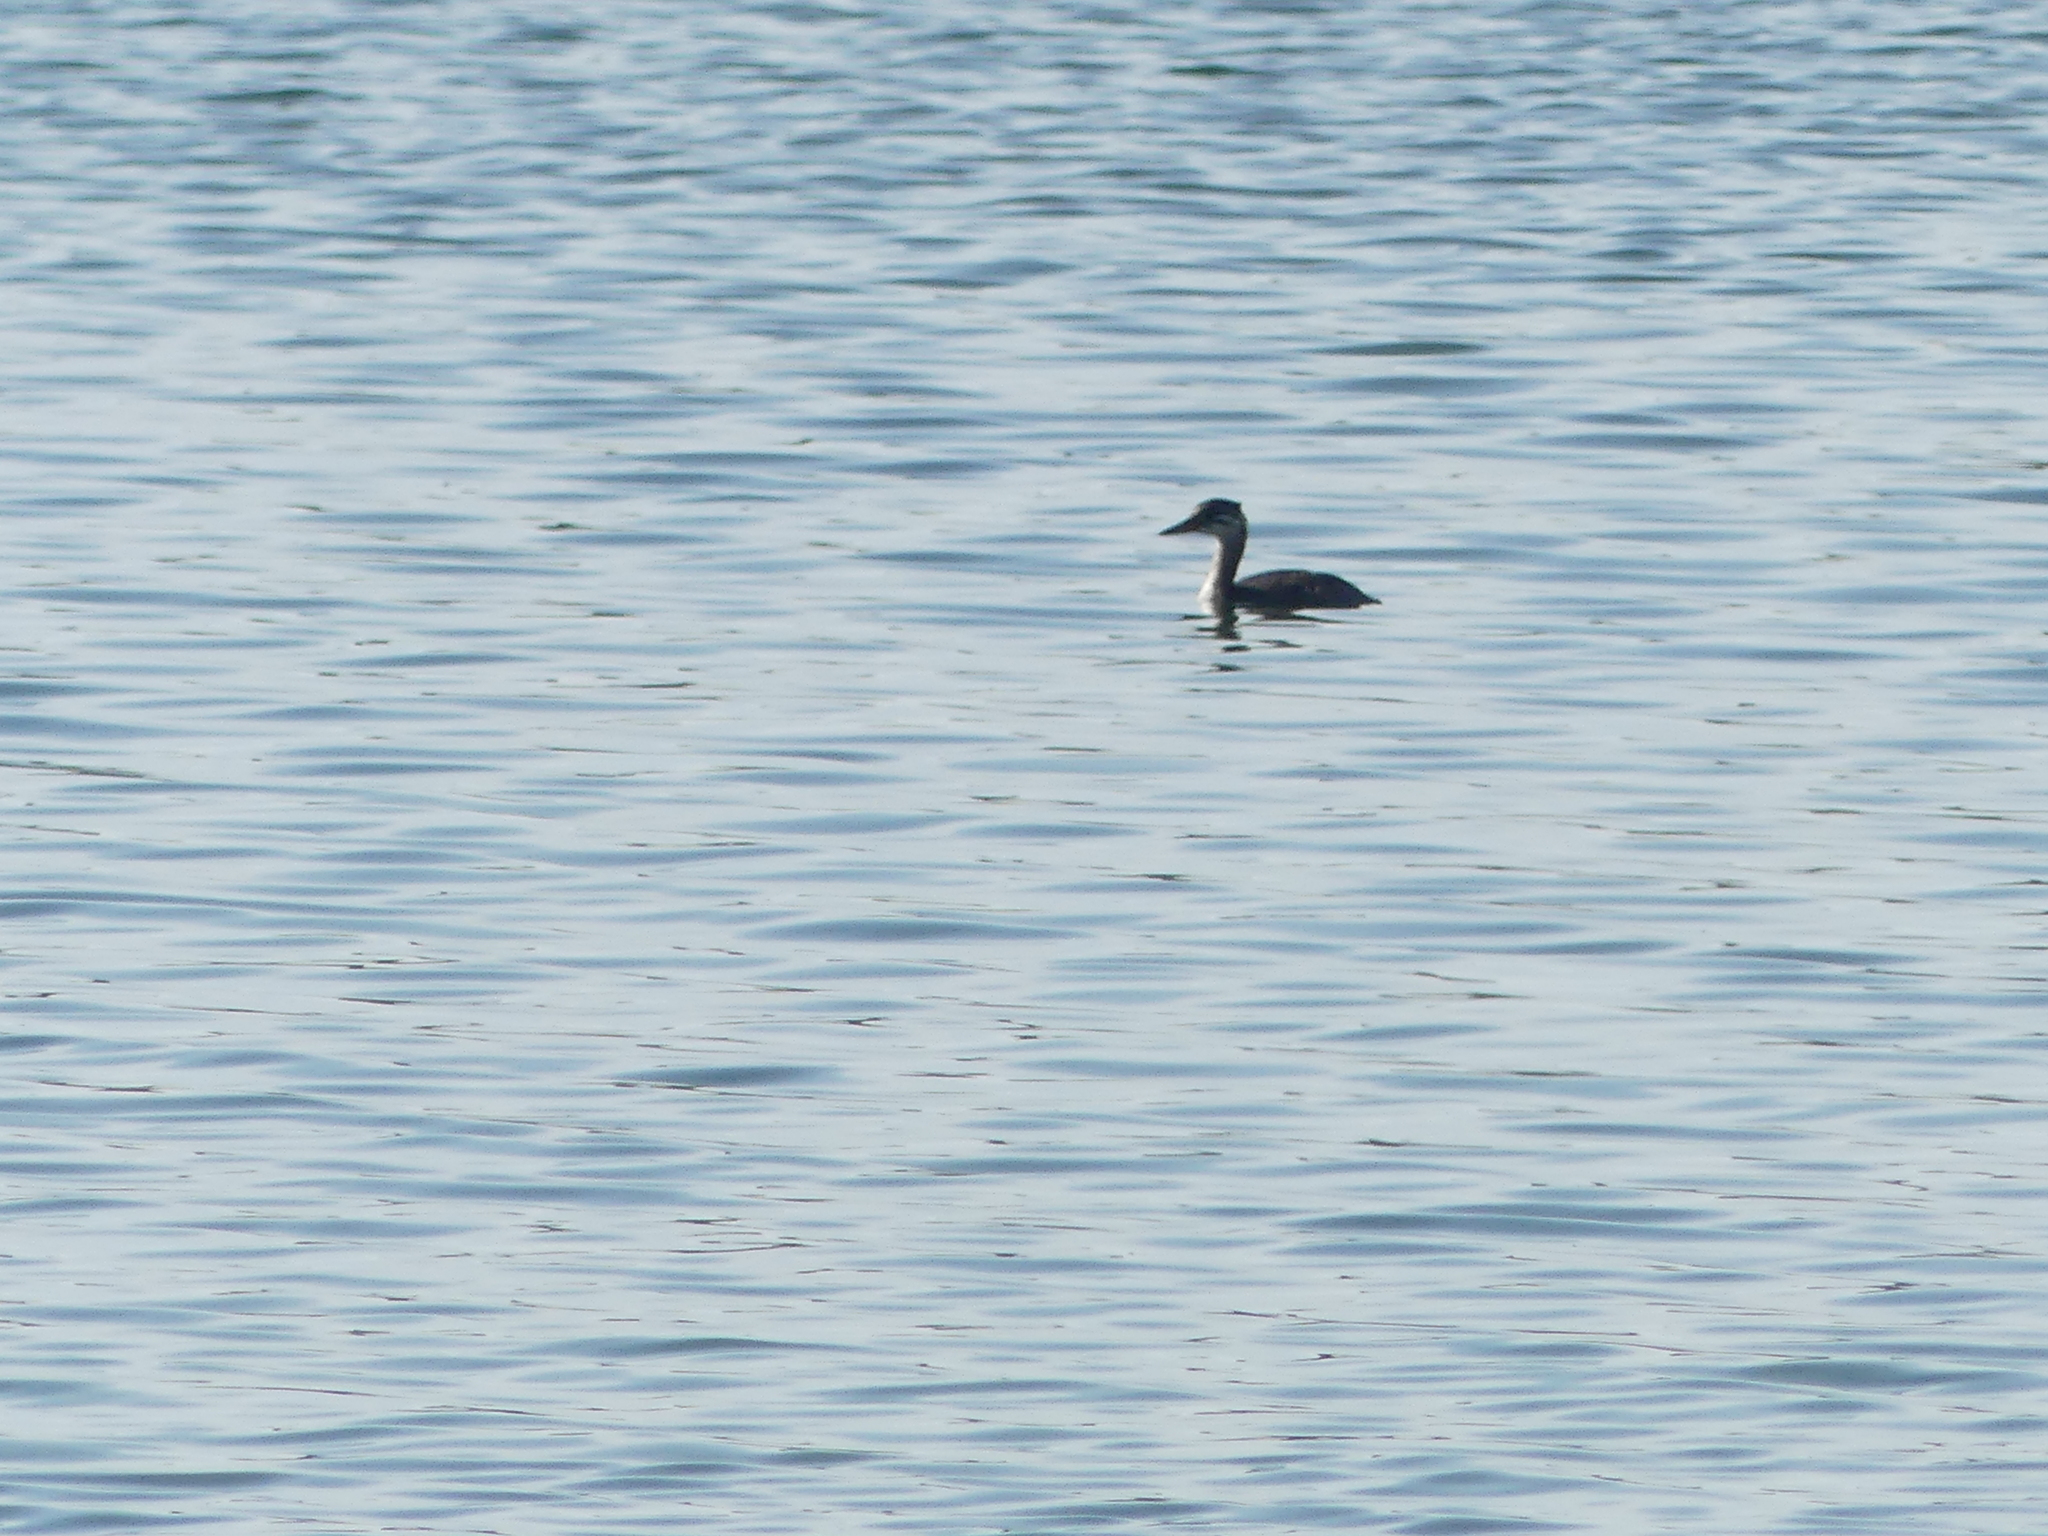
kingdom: Animalia
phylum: Chordata
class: Aves
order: Podicipediformes
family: Podicipedidae
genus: Podiceps
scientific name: Podiceps grisegena
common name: Red-necked grebe
